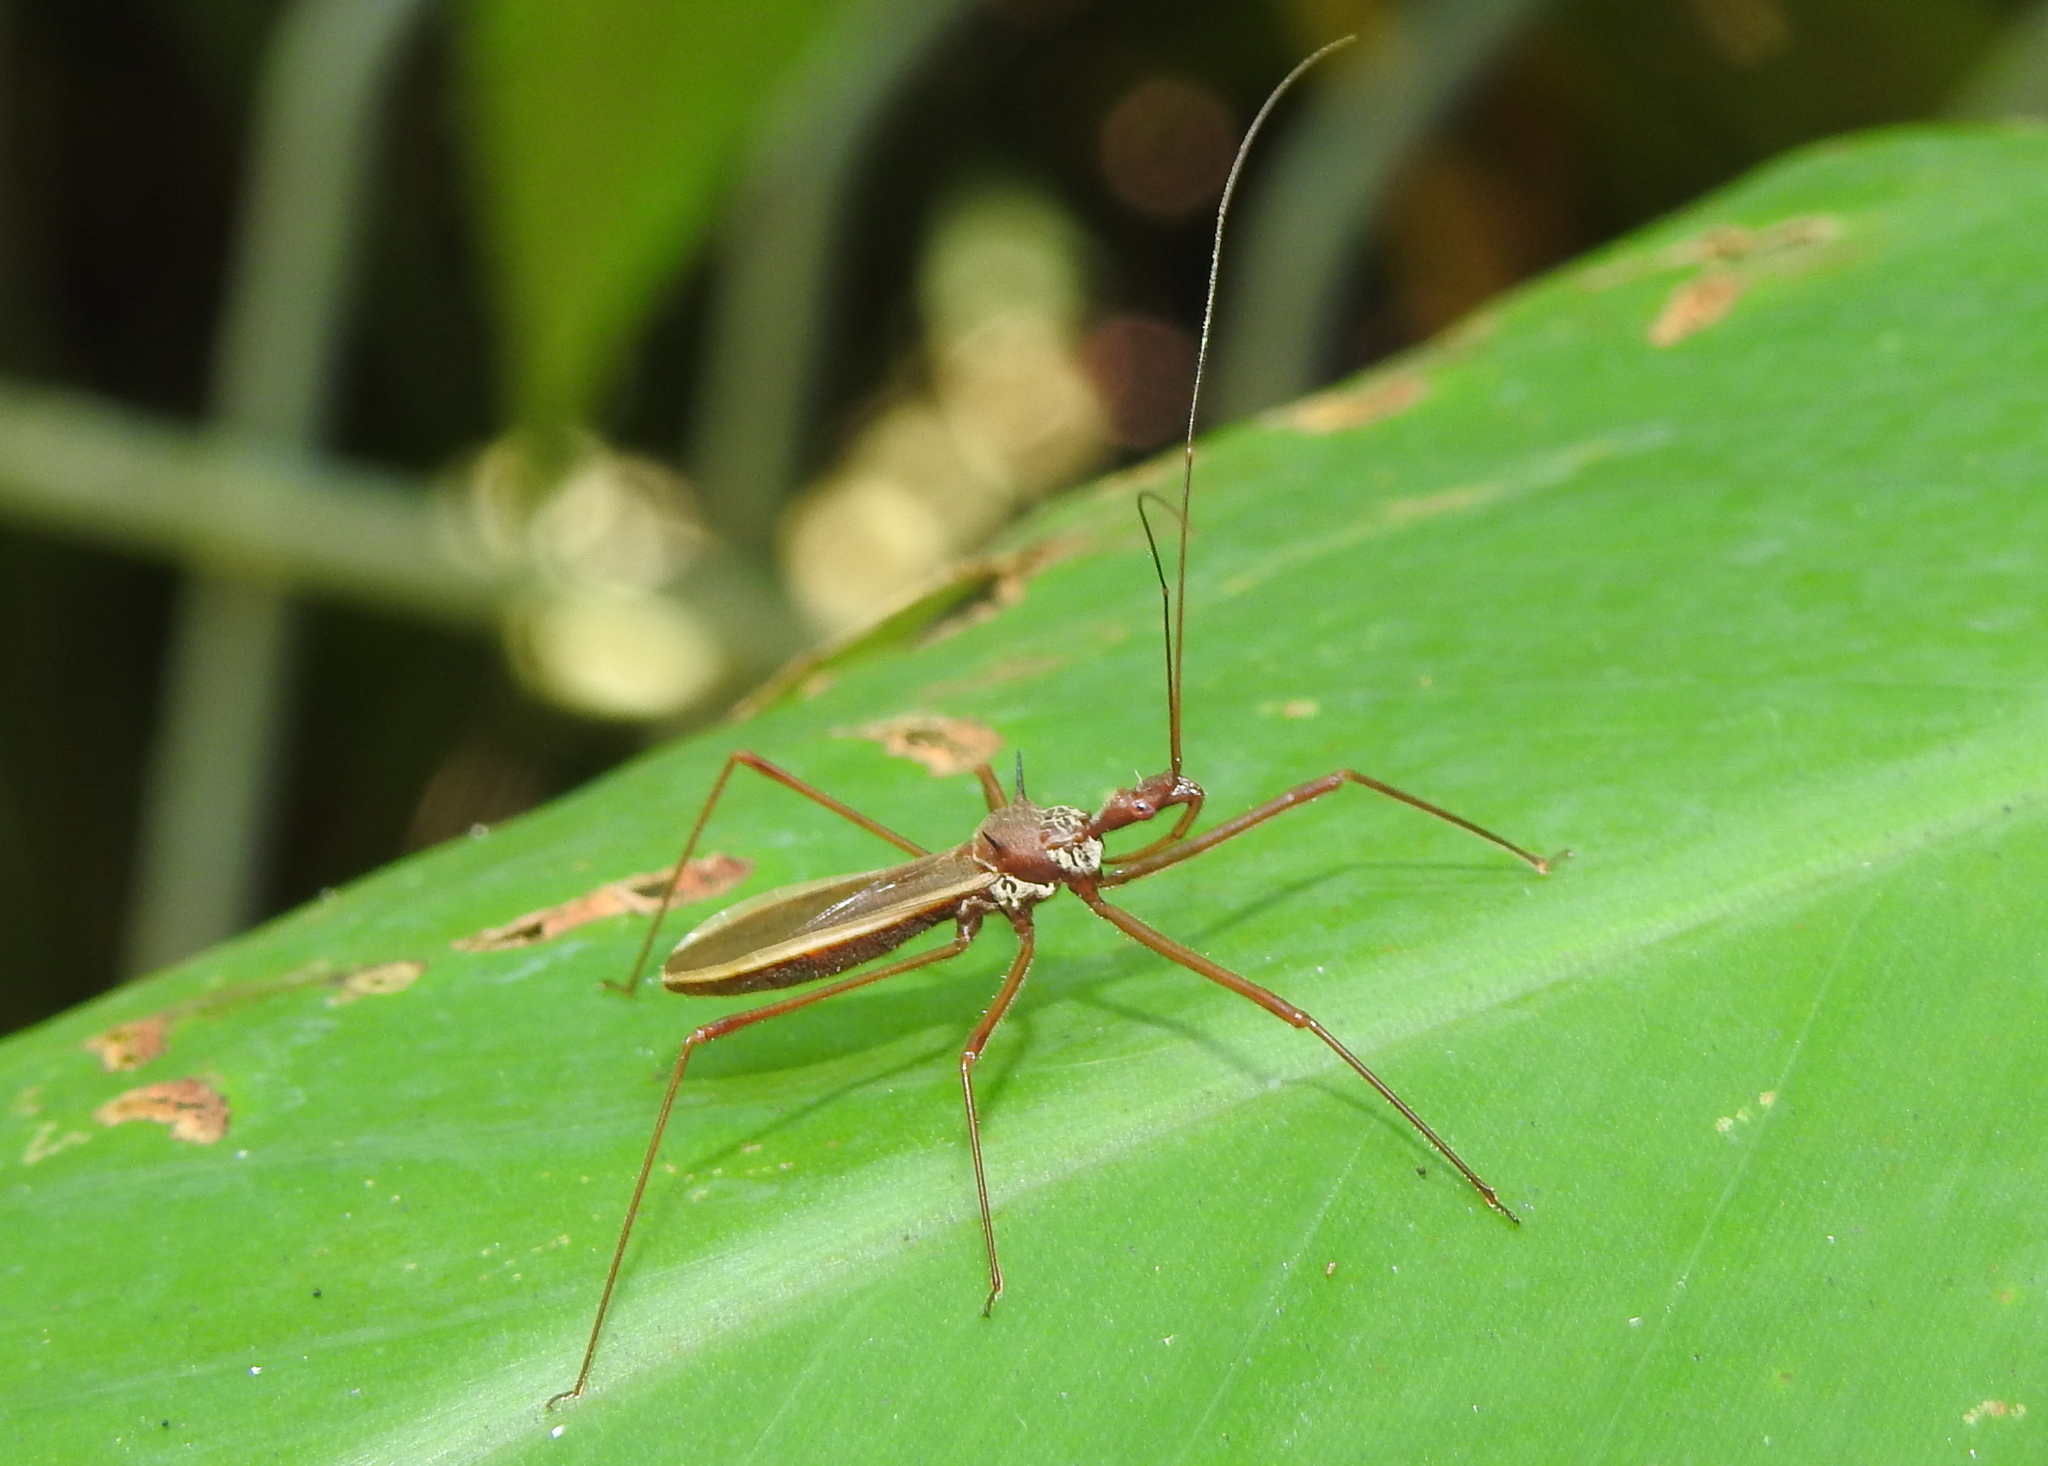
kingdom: Animalia
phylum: Arthropoda
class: Insecta
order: Hemiptera
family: Reduviidae
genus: Euagoras
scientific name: Euagoras sordidatus
